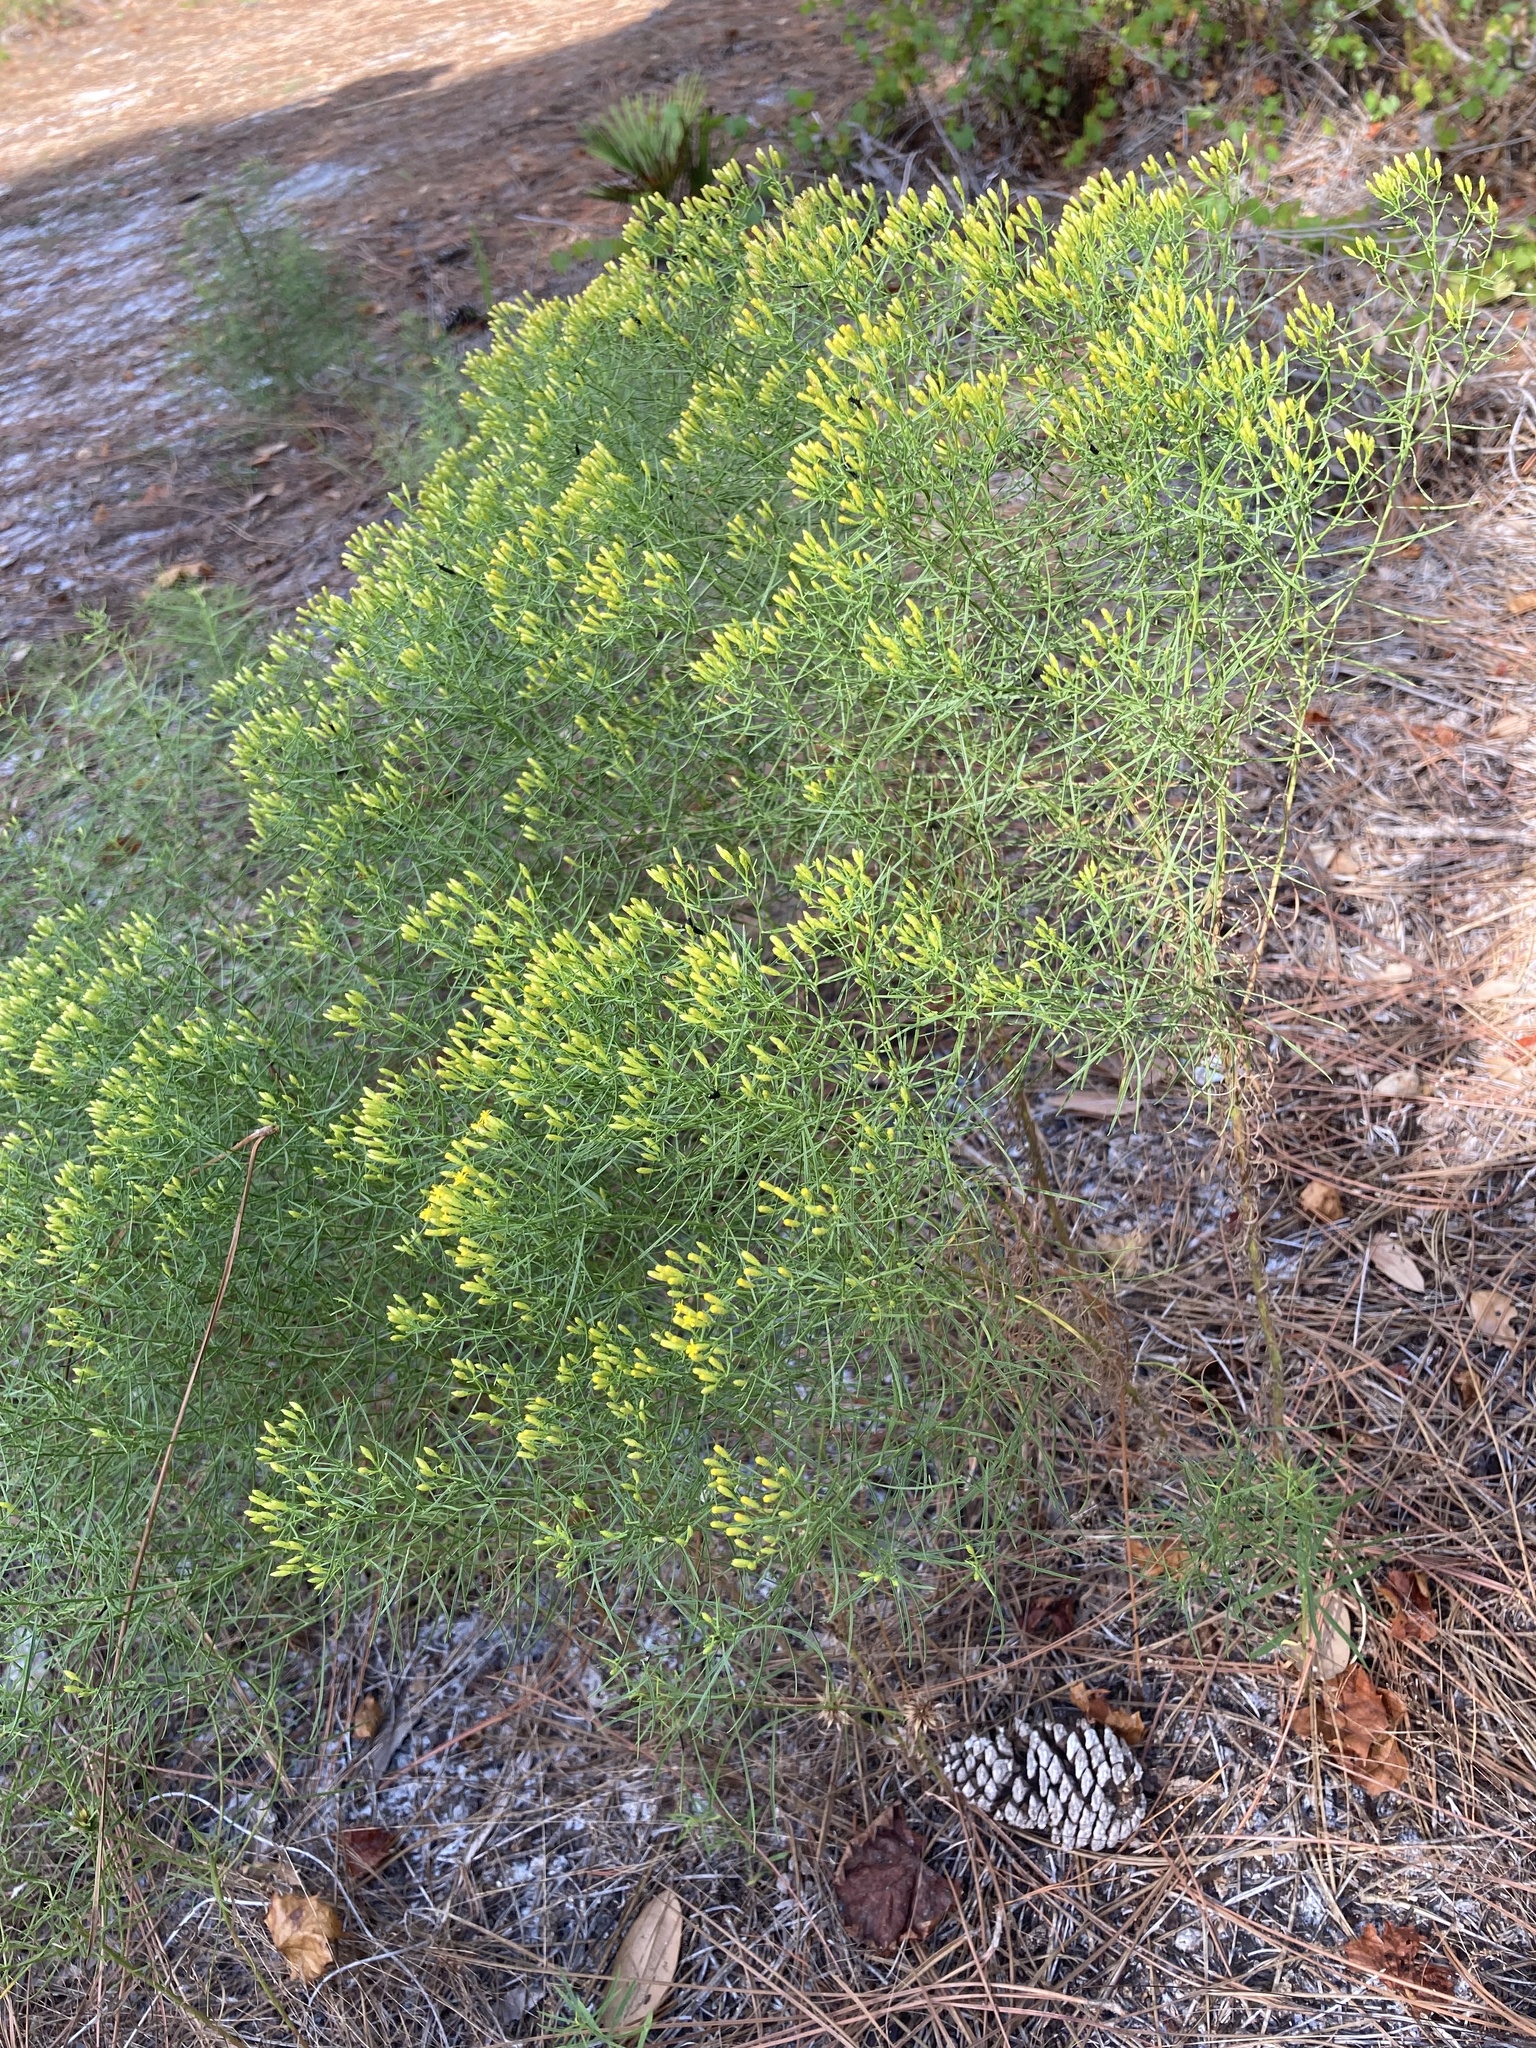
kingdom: Plantae
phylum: Tracheophyta
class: Magnoliopsida
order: Asterales
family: Asteraceae
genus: Euthamia
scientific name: Euthamia caroliniana
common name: Coastal plain goldentop
